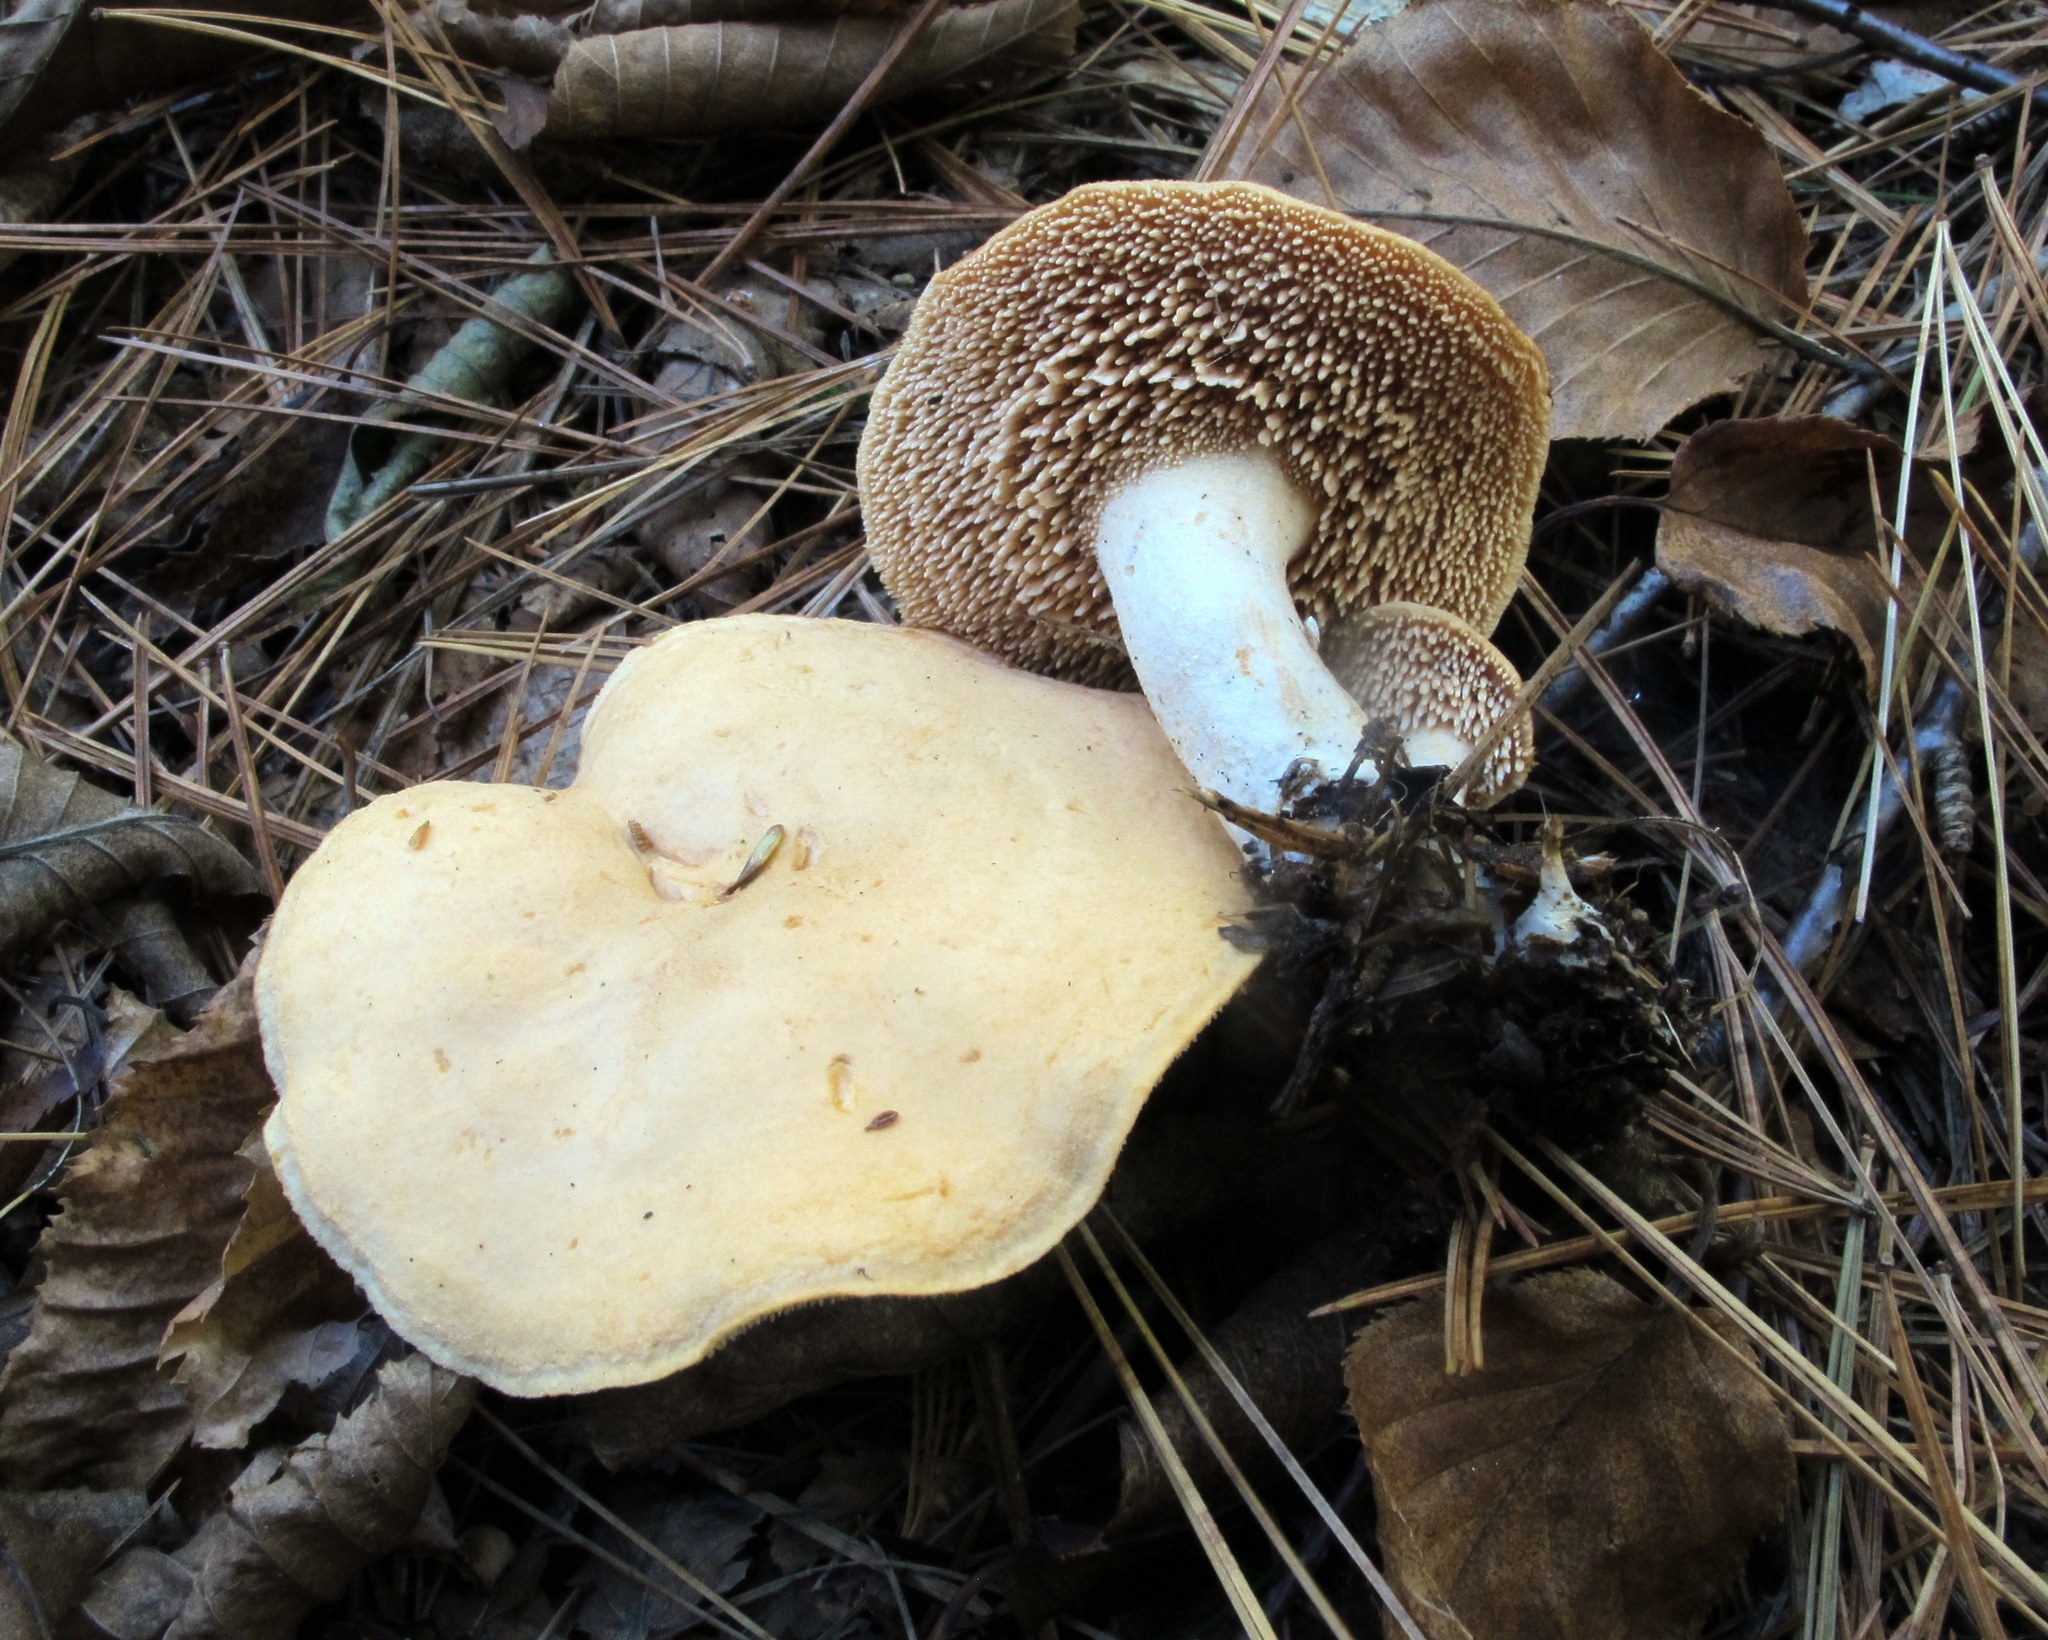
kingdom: Fungi
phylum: Basidiomycota
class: Agaricomycetes
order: Cantharellales
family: Hydnaceae
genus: Hydnum
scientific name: Hydnum umbilicatum
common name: Umbilicate hedgehog
